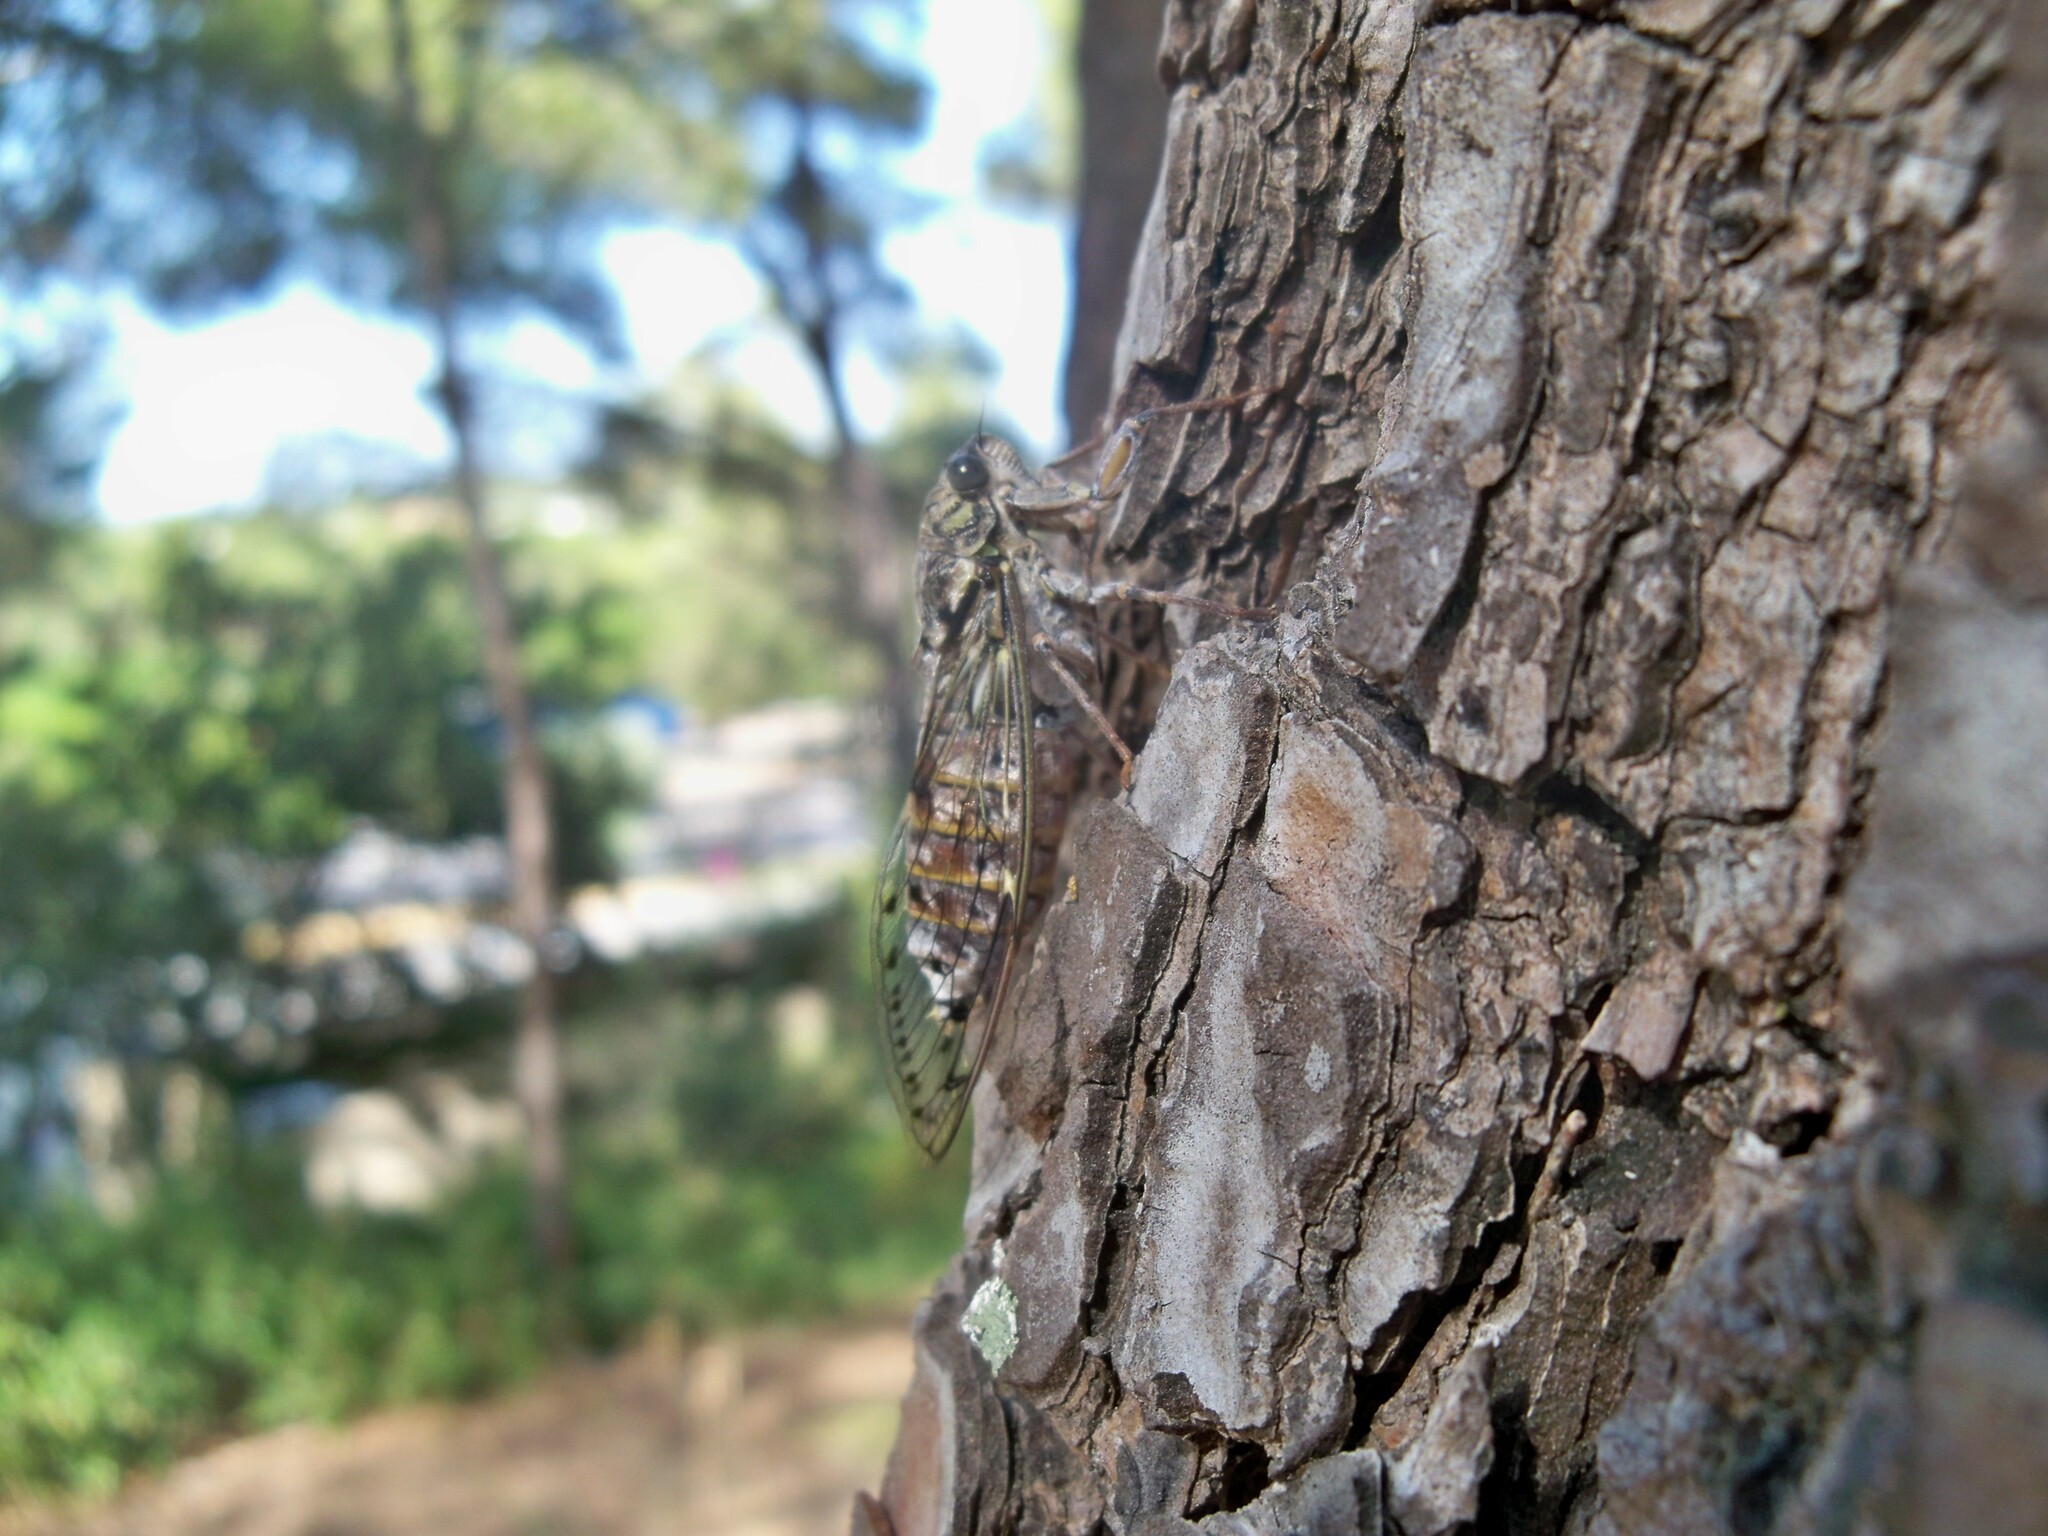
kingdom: Animalia
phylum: Arthropoda
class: Insecta
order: Hemiptera
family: Cicadidae
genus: Cicada
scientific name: Cicada orni
